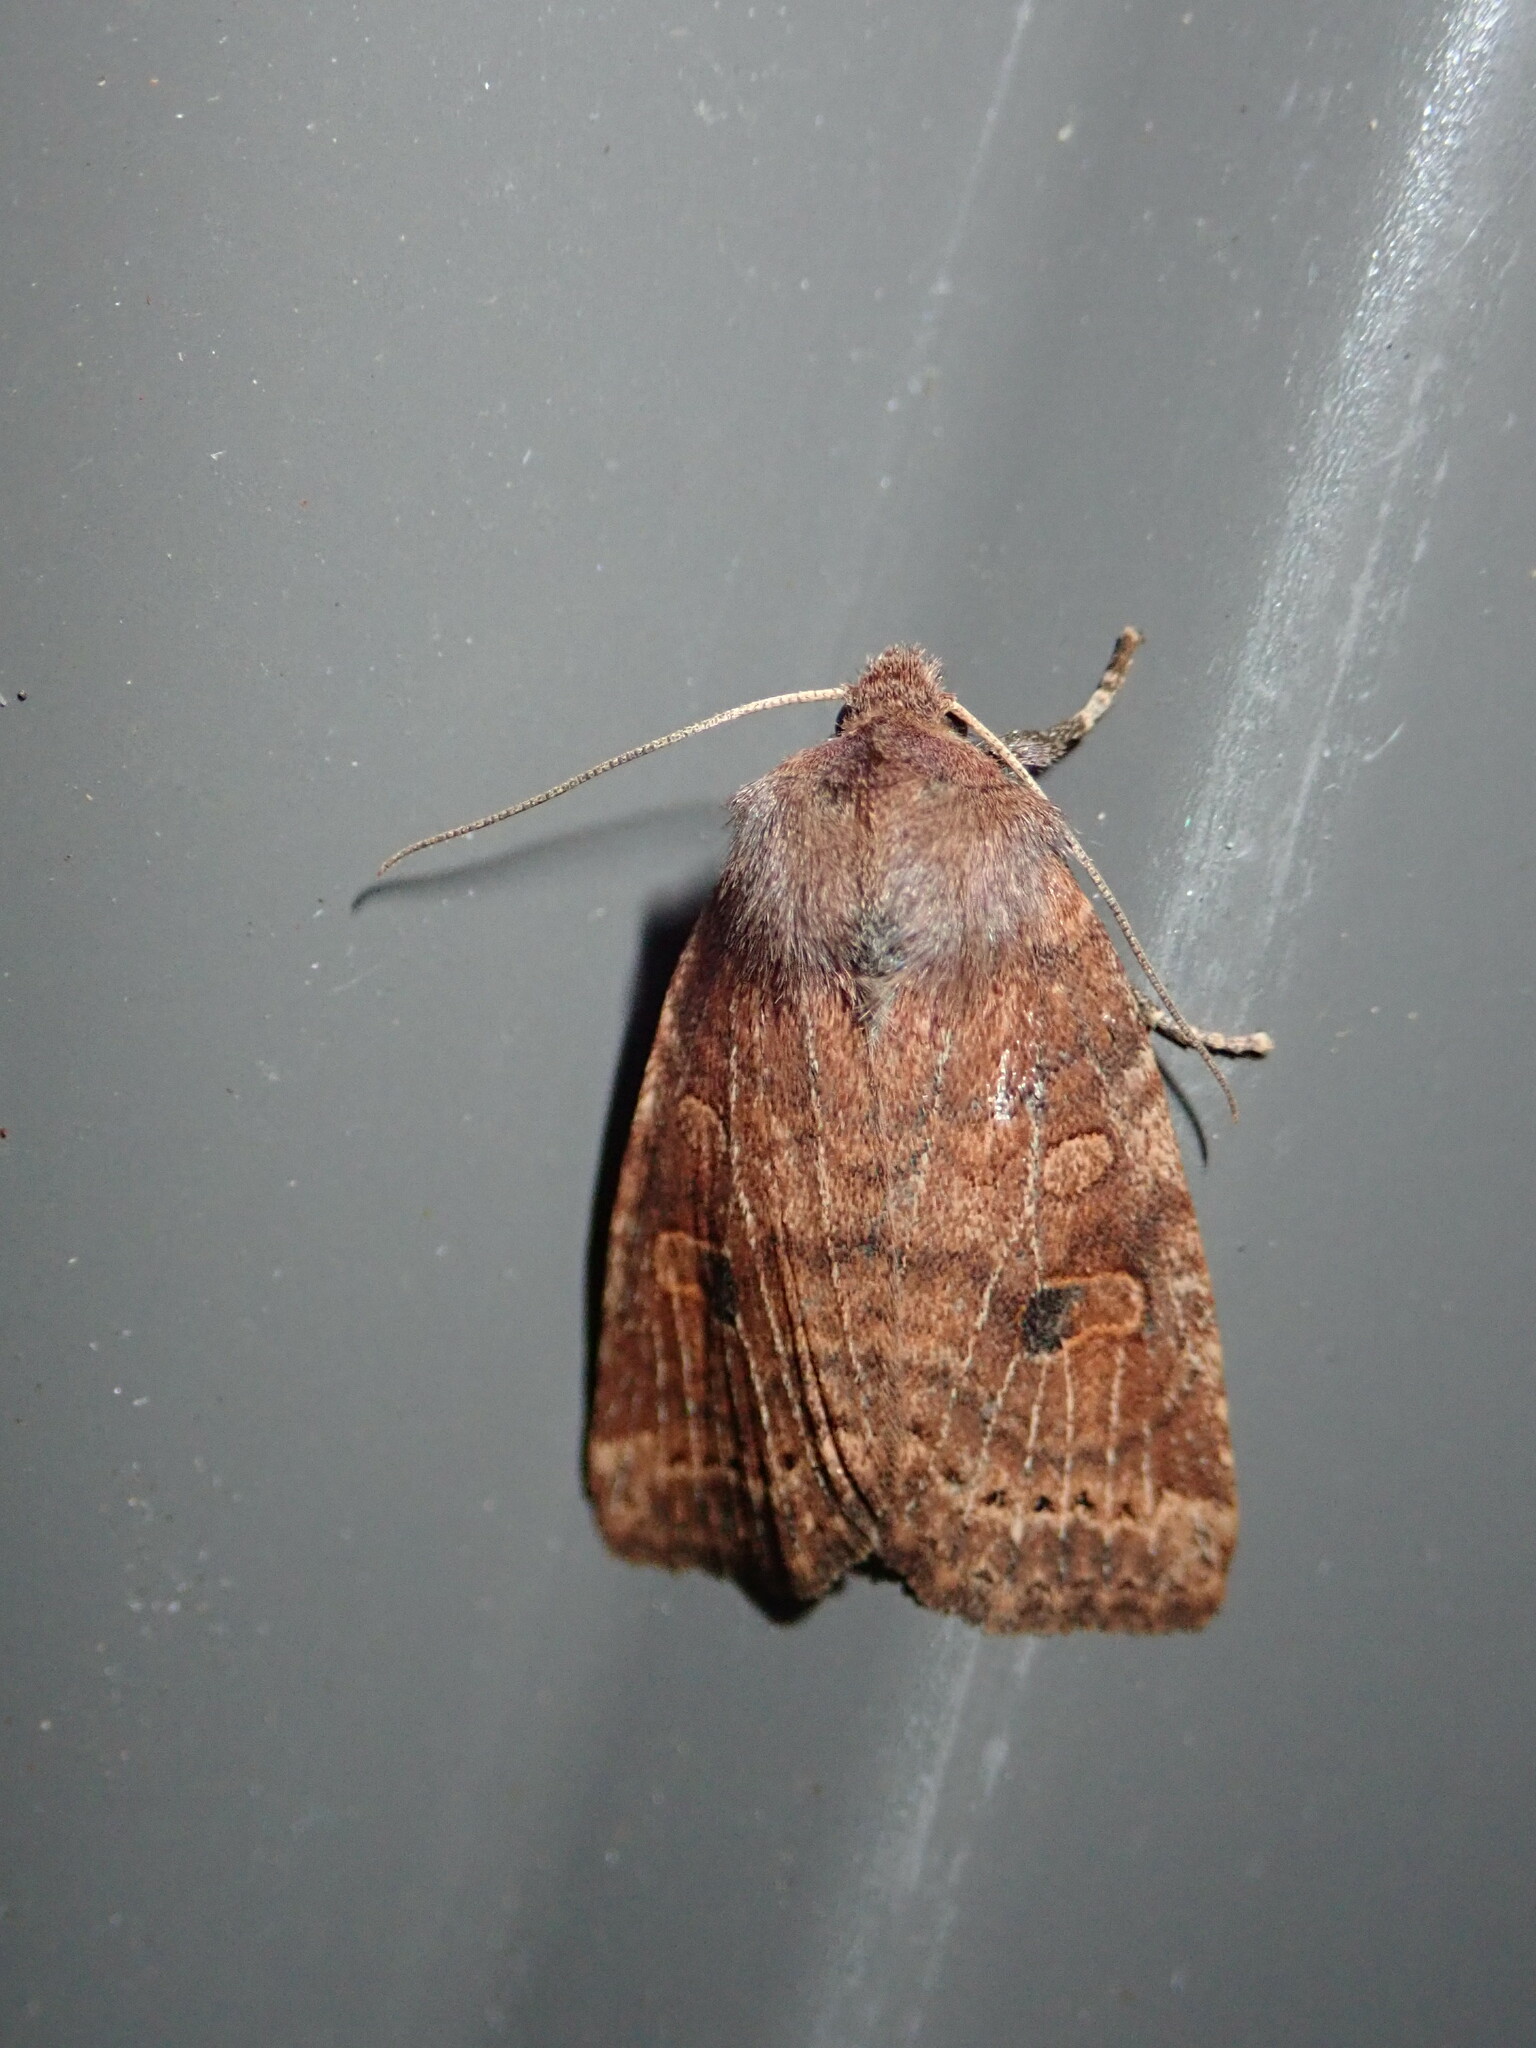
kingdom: Animalia
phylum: Arthropoda
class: Insecta
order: Lepidoptera
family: Noctuidae
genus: Anathix
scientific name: Anathix puta
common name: Puta sallow
